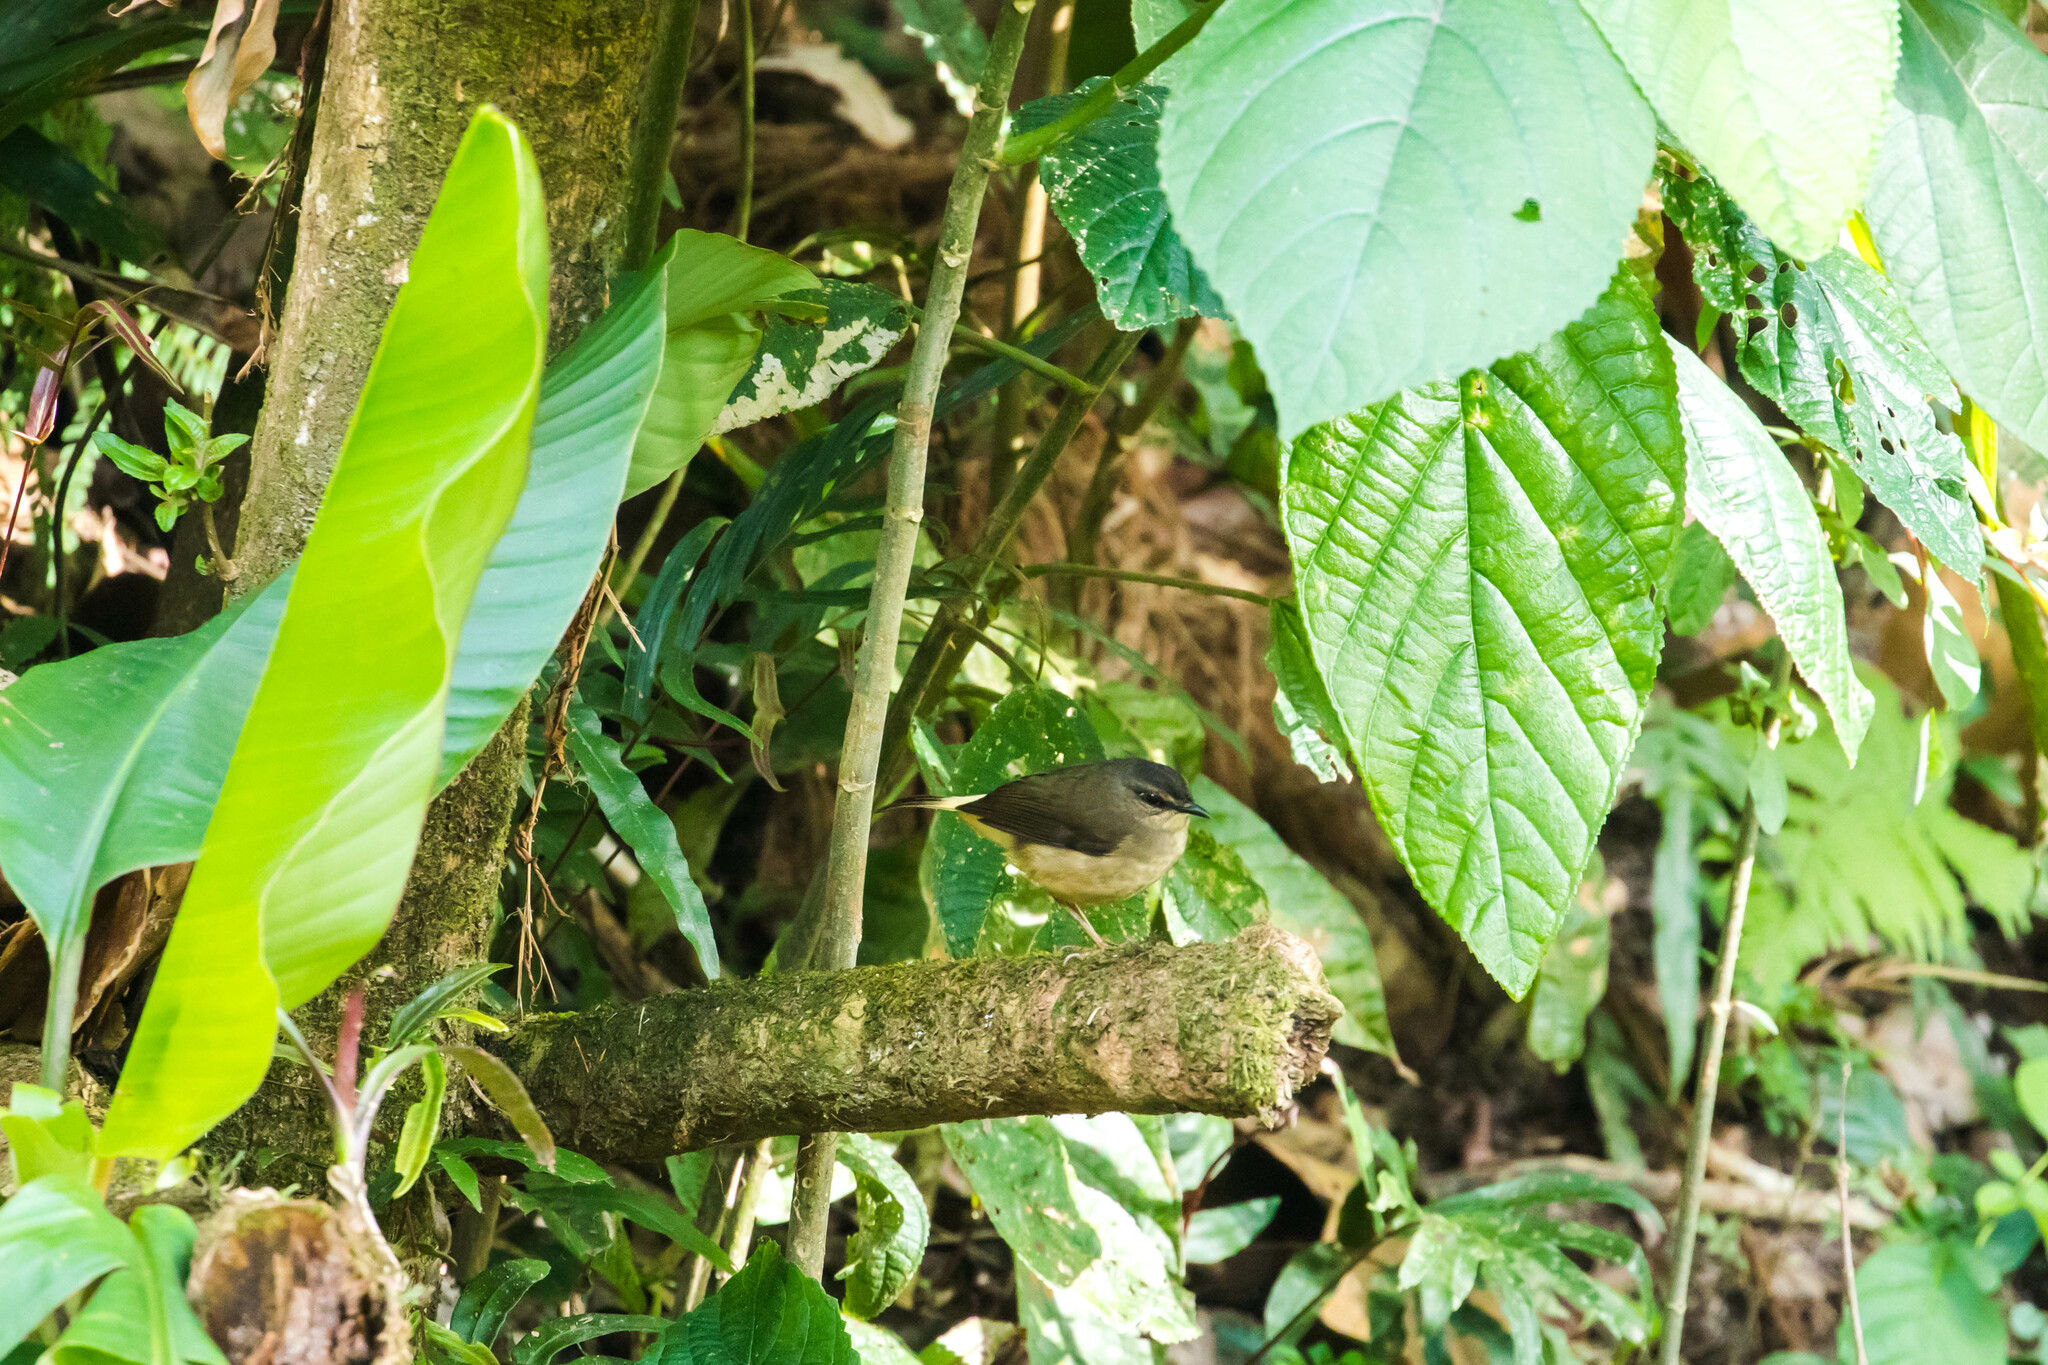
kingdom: Animalia
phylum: Chordata
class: Aves
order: Passeriformes
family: Parulidae
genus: Myiothlypis
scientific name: Myiothlypis fulvicauda
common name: Buff-rumped warbler
